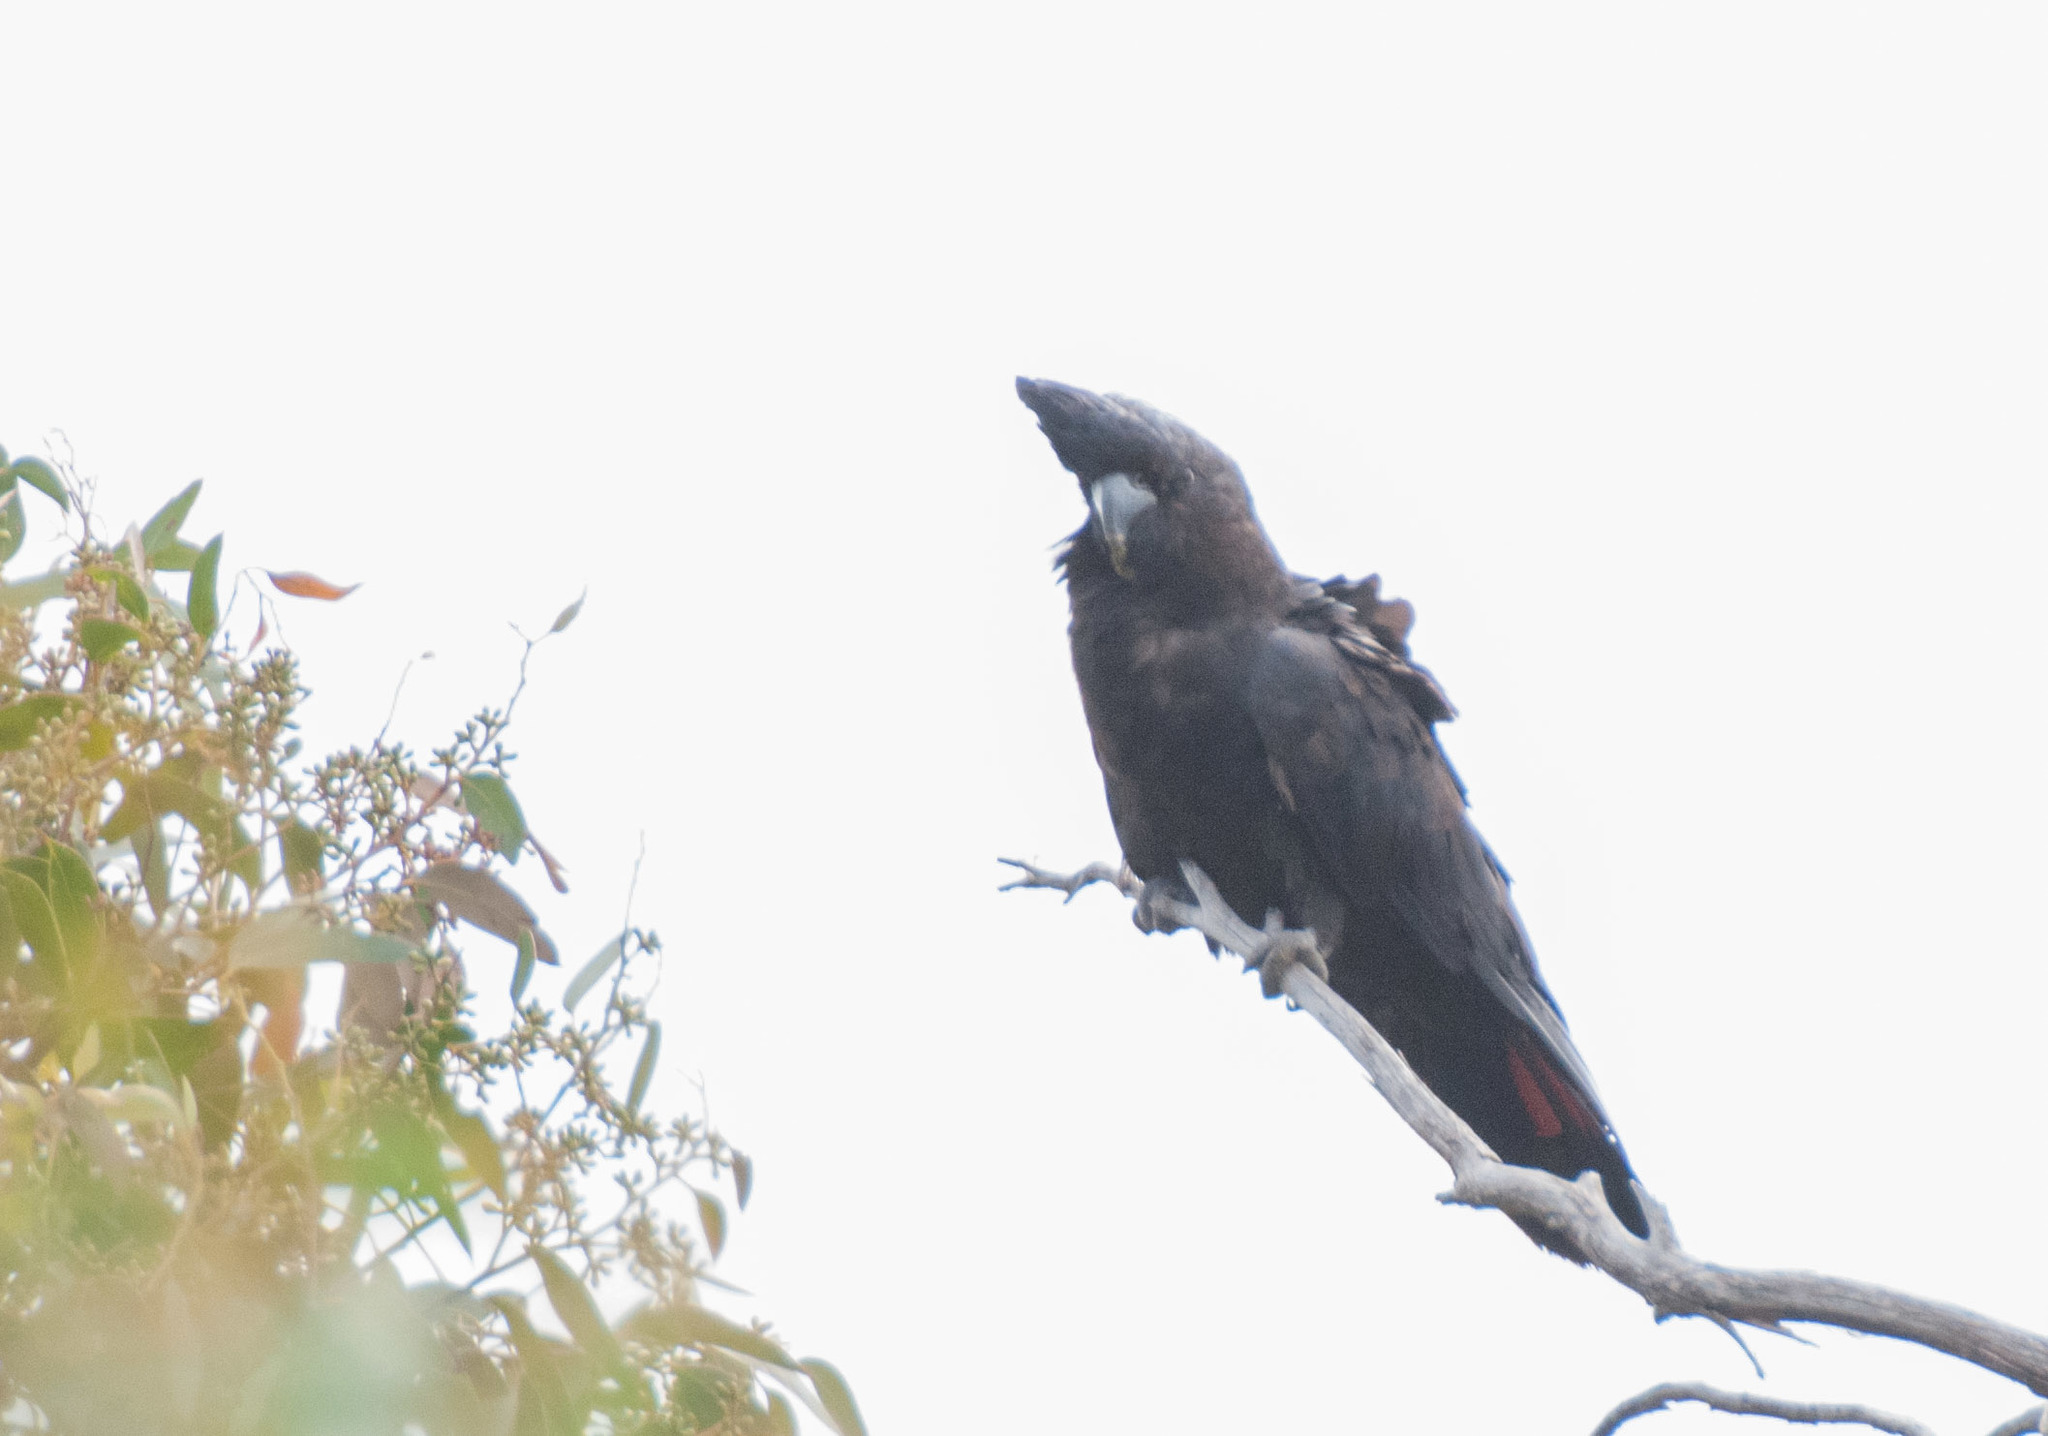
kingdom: Animalia
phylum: Chordata
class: Aves
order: Psittaciformes
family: Psittacidae
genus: Calyptorhynchus
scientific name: Calyptorhynchus banksii
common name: Red-tailed black cockatoo
